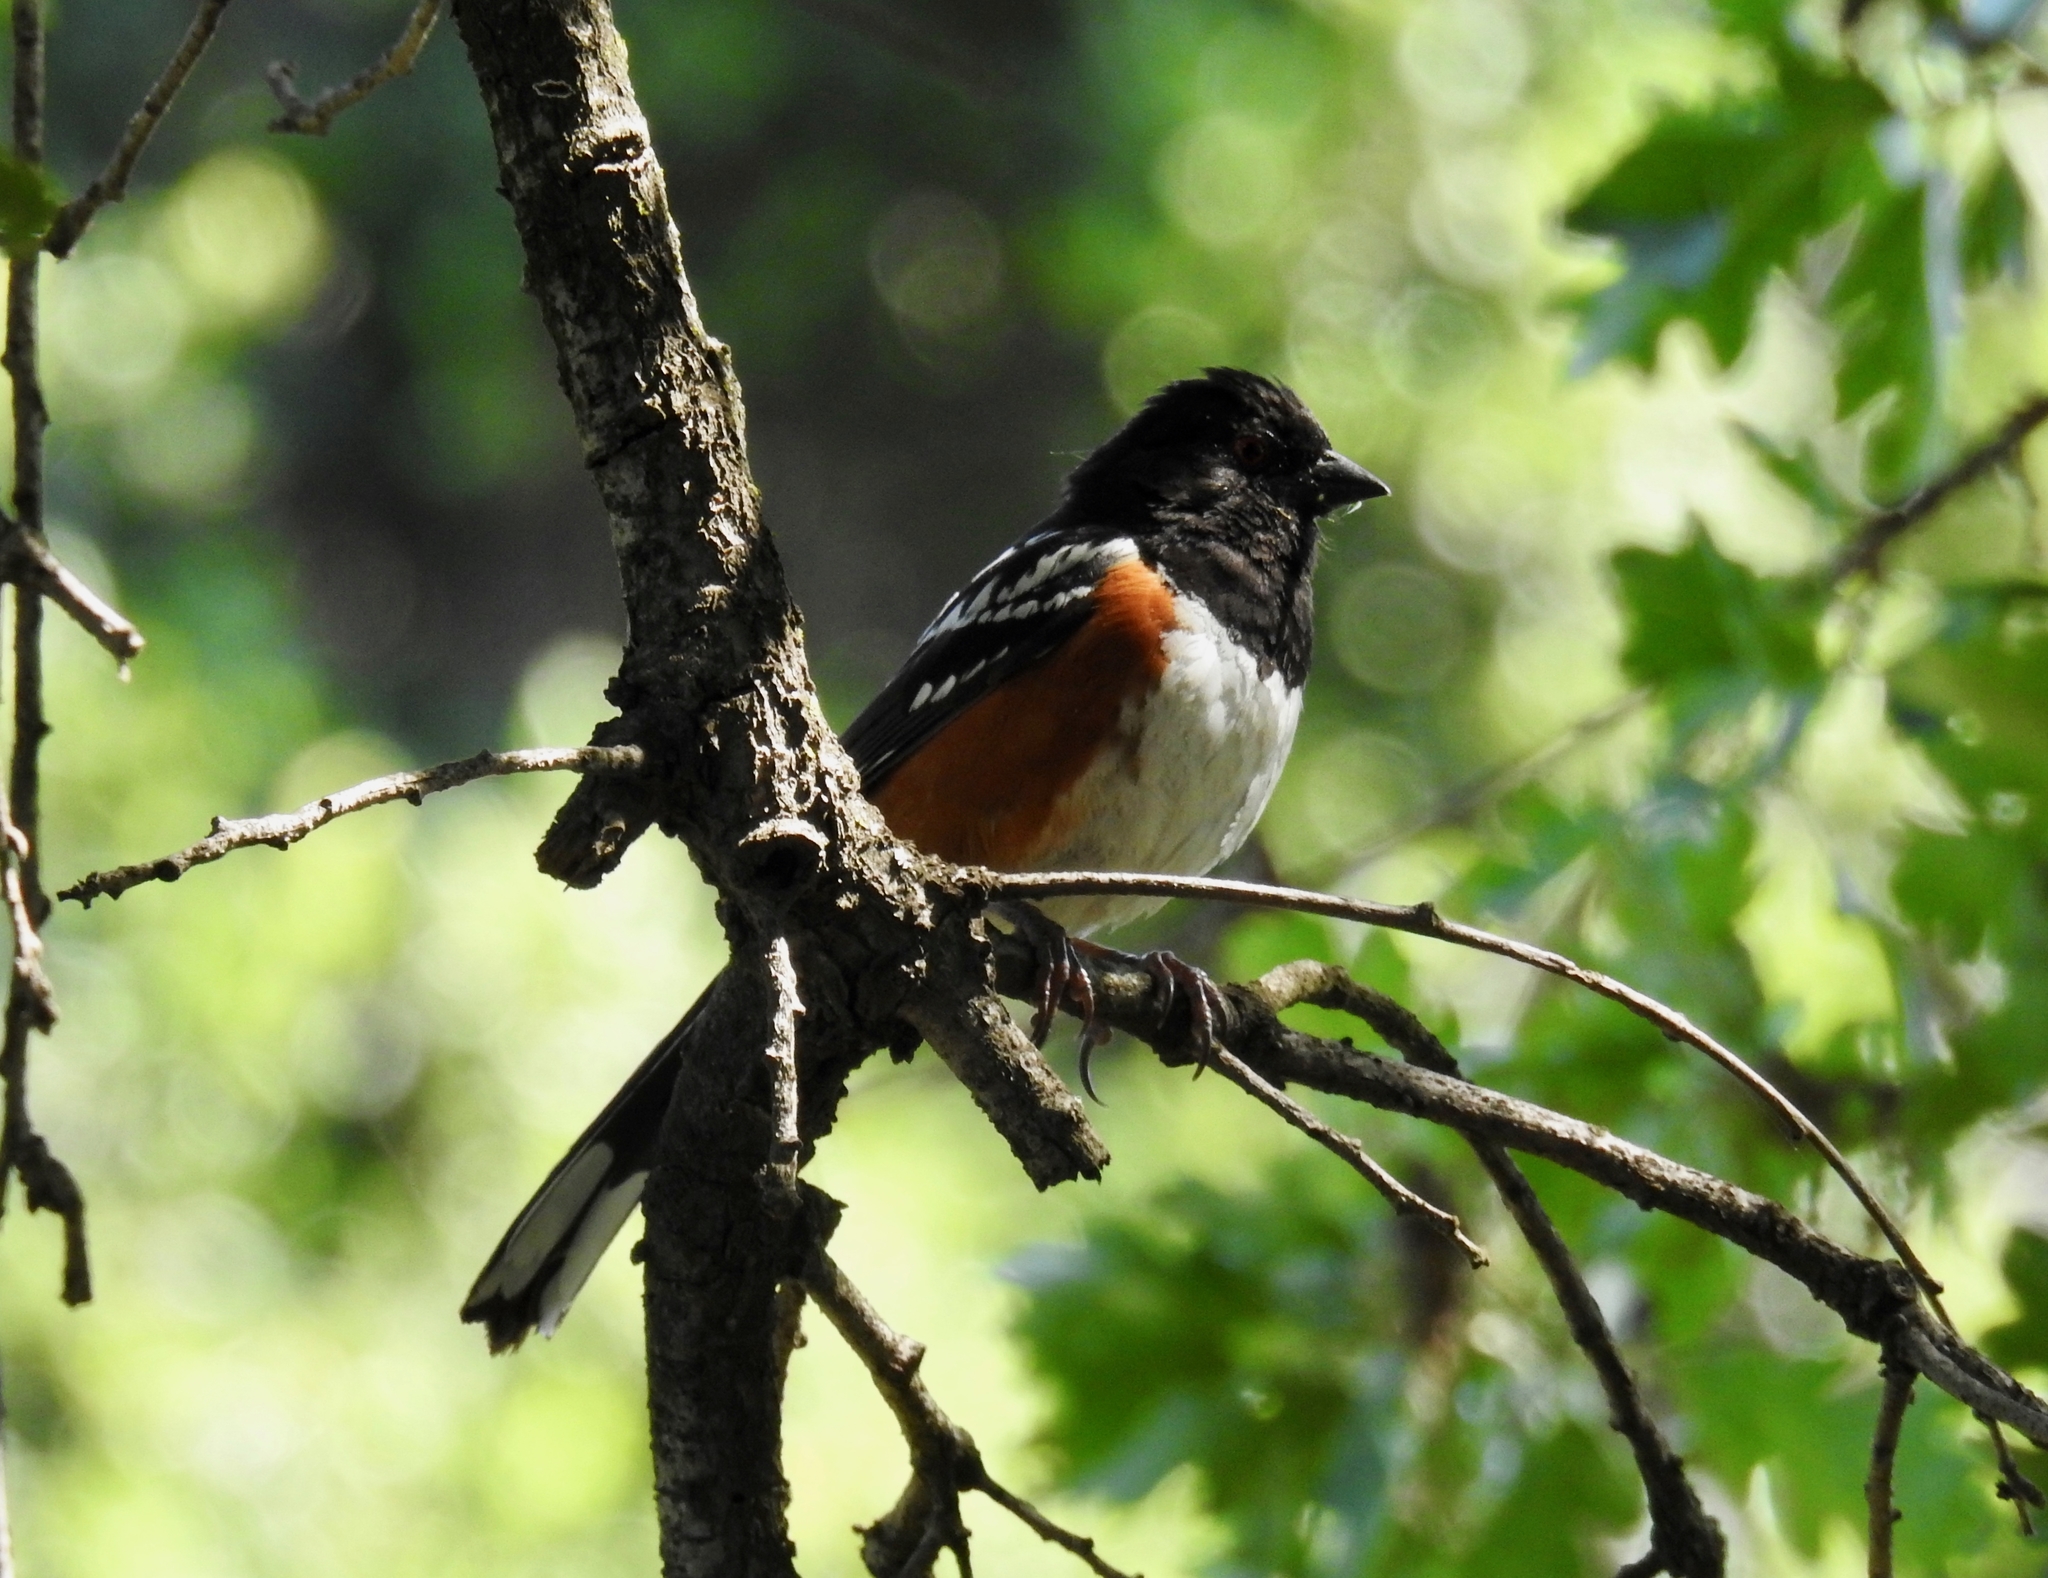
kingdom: Animalia
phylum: Chordata
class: Aves
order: Passeriformes
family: Passerellidae
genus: Pipilo
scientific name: Pipilo maculatus
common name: Spotted towhee
